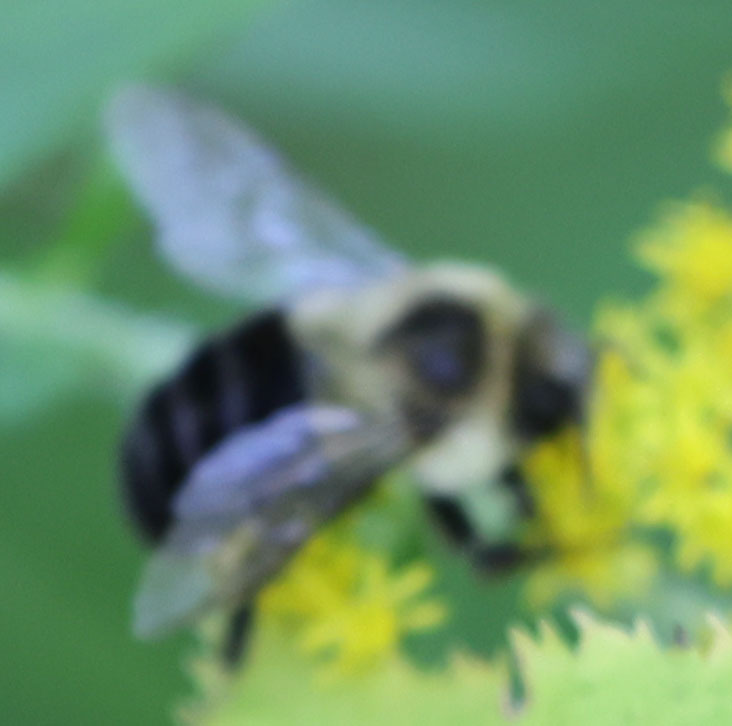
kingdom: Animalia
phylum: Arthropoda
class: Insecta
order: Hymenoptera
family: Apidae
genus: Bombus
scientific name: Bombus impatiens
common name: Common eastern bumble bee
